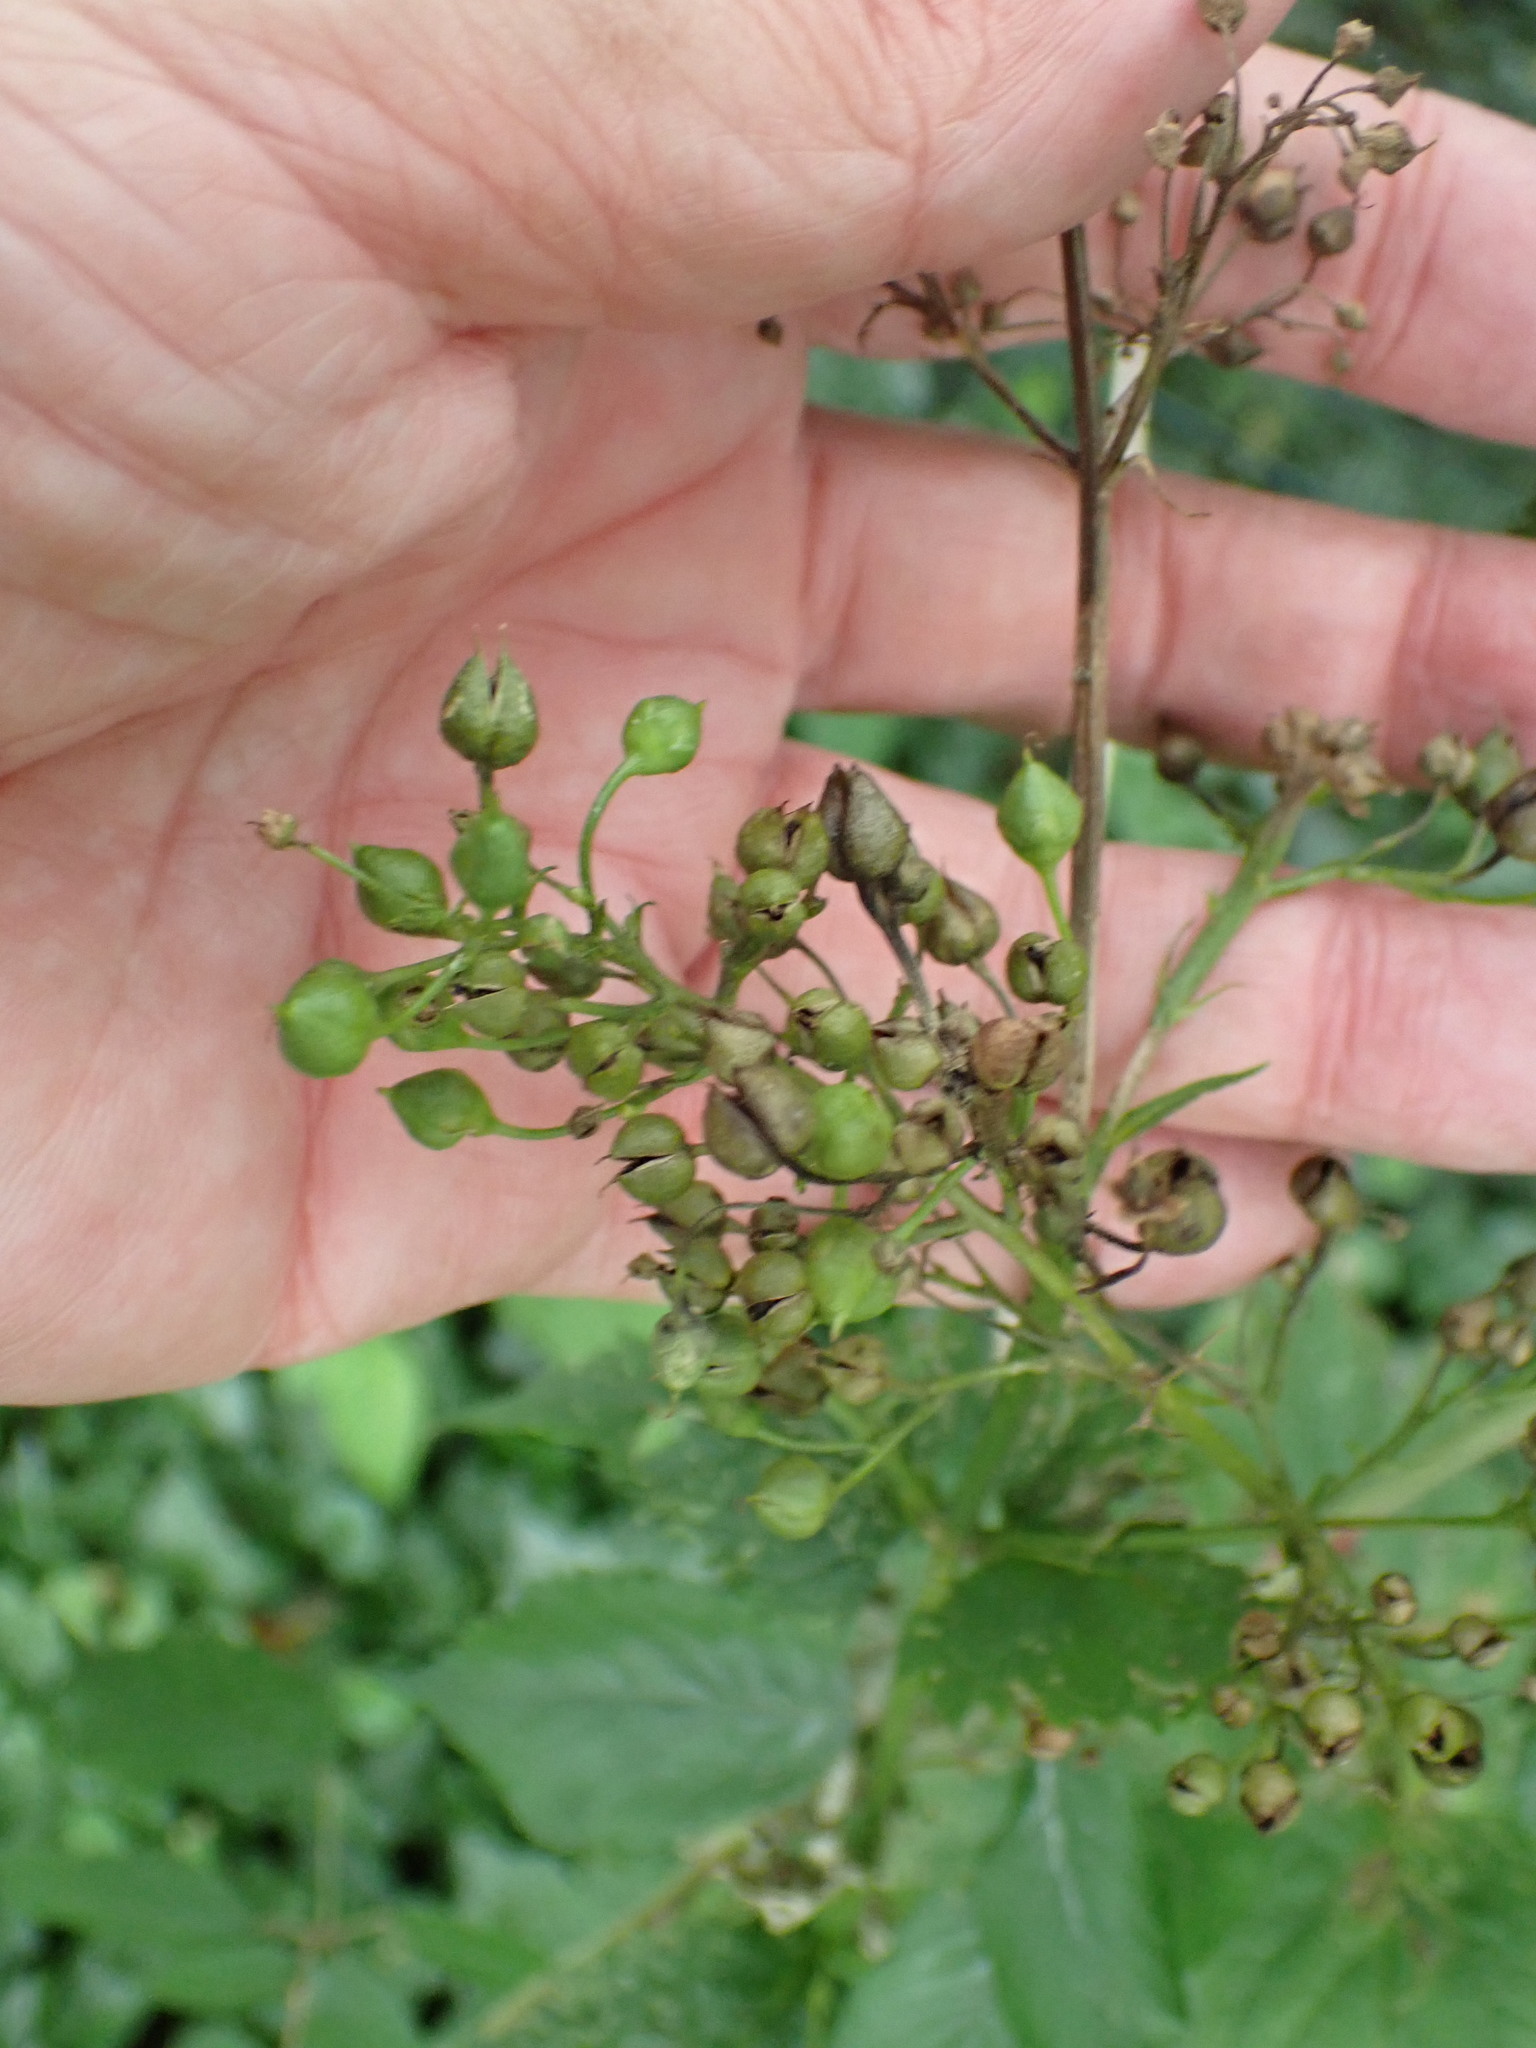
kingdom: Plantae
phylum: Tracheophyta
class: Magnoliopsida
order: Lamiales
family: Scrophulariaceae
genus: Scrophularia
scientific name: Scrophularia nodosa
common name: Common figwort
